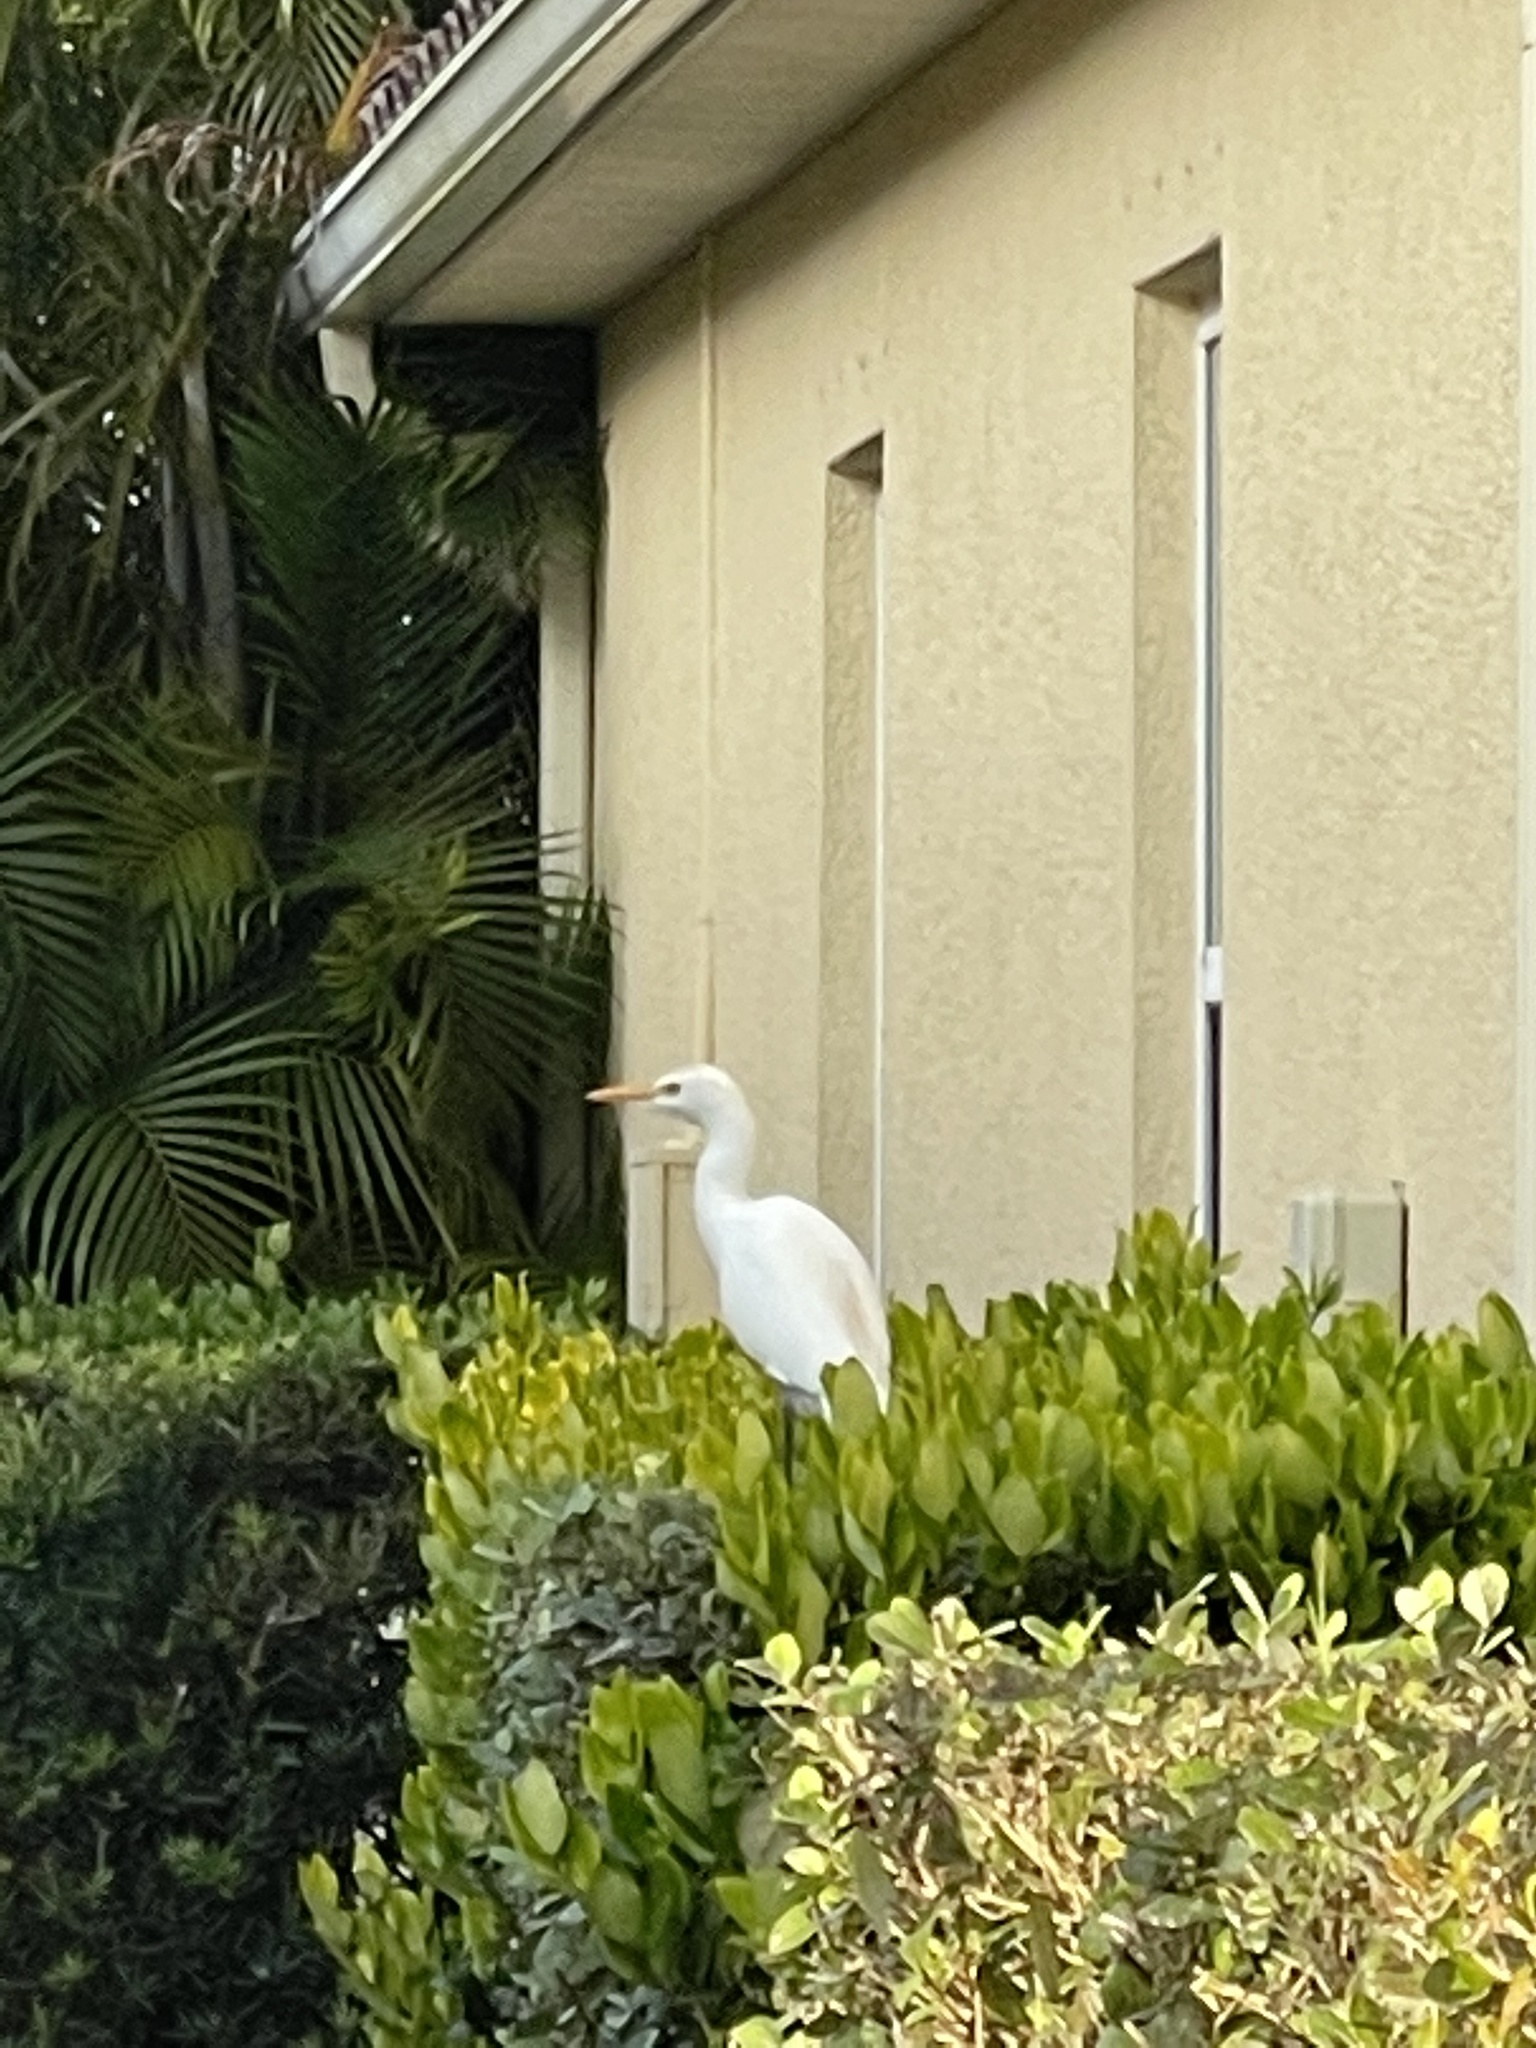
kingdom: Animalia
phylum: Chordata
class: Aves
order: Pelecaniformes
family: Ardeidae
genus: Bubulcus
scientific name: Bubulcus ibis
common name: Cattle egret
